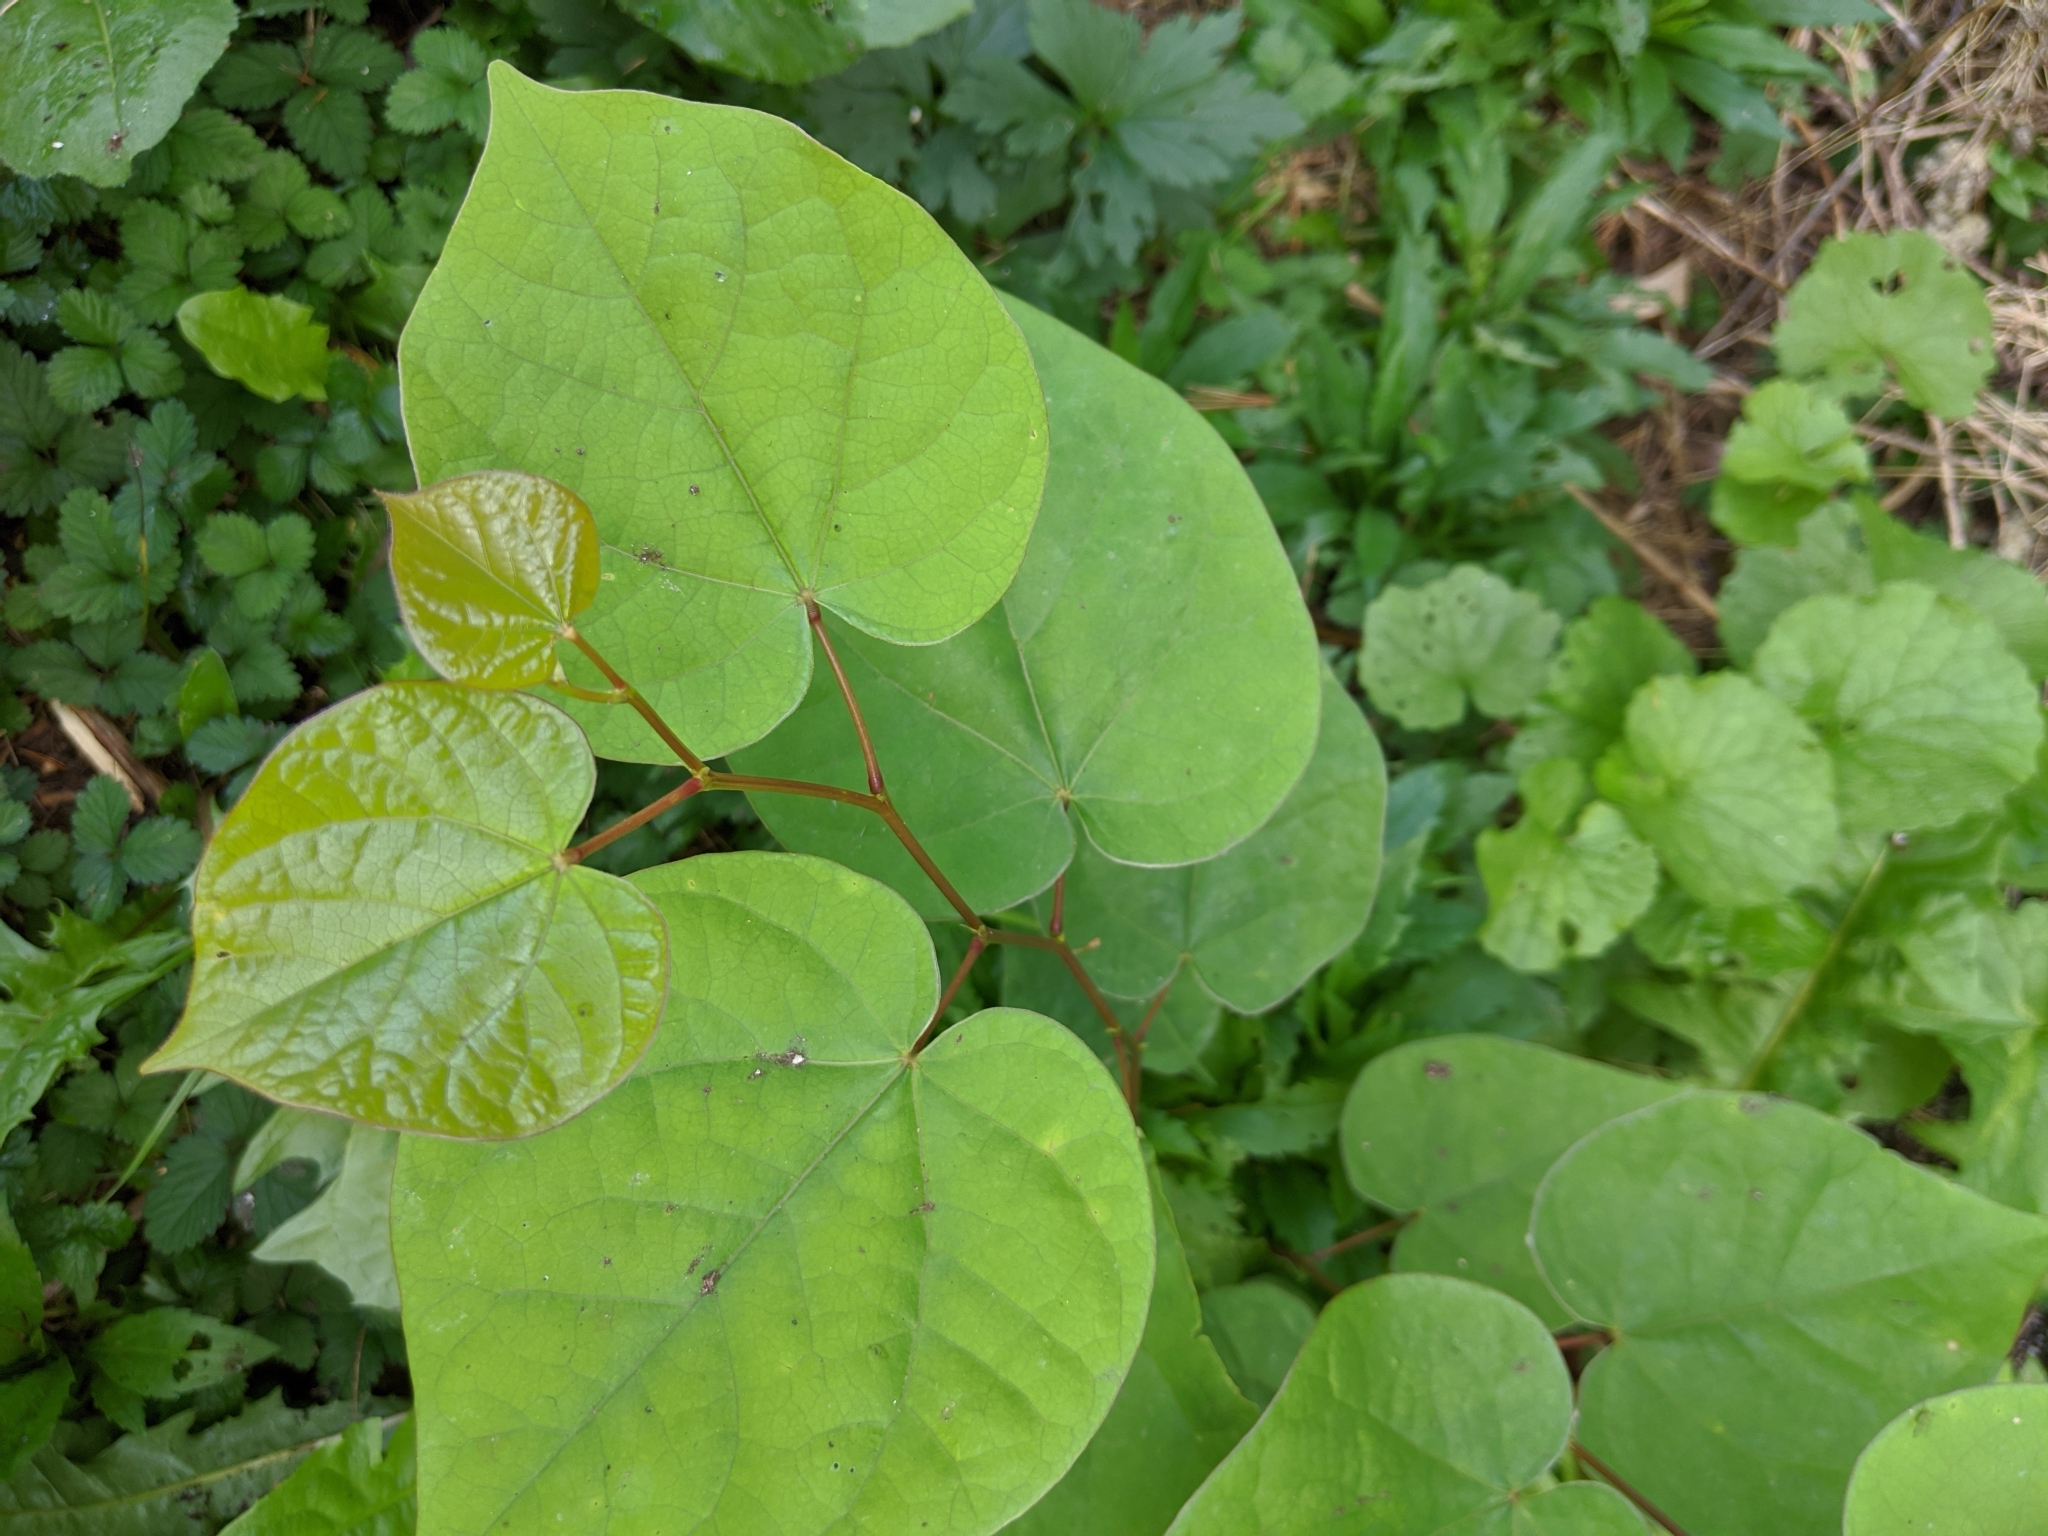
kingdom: Plantae
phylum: Tracheophyta
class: Magnoliopsida
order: Fabales
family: Fabaceae
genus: Cercis
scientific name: Cercis canadensis
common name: Eastern redbud
